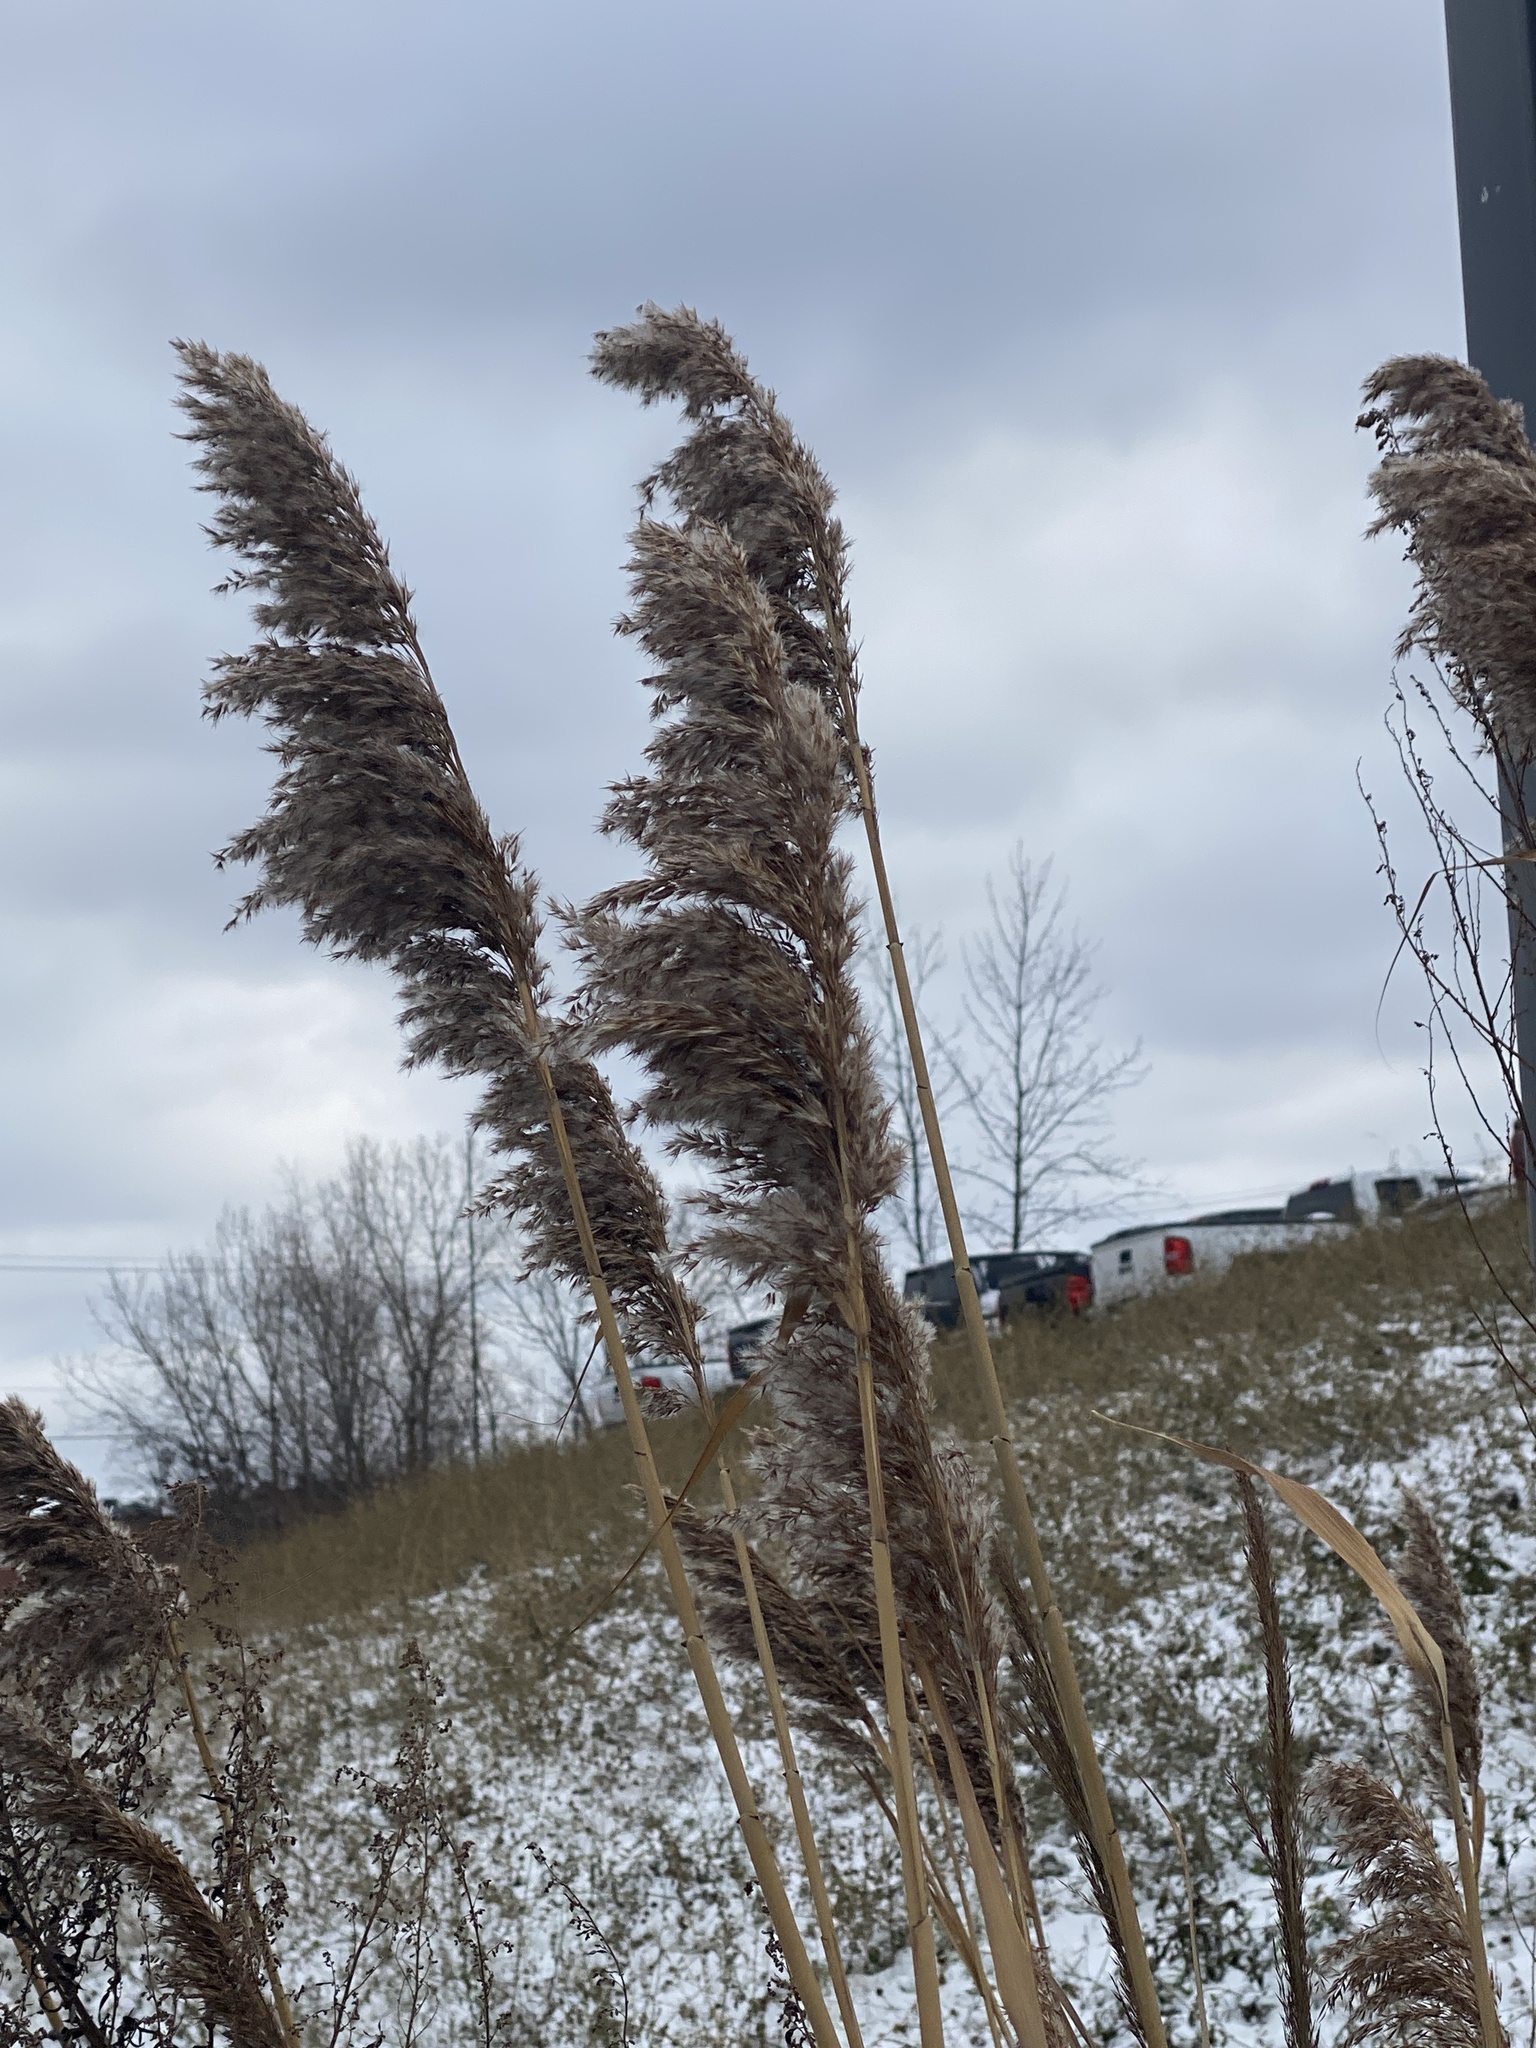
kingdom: Plantae
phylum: Tracheophyta
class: Liliopsida
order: Poales
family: Poaceae
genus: Phragmites
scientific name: Phragmites australis
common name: Common reed
